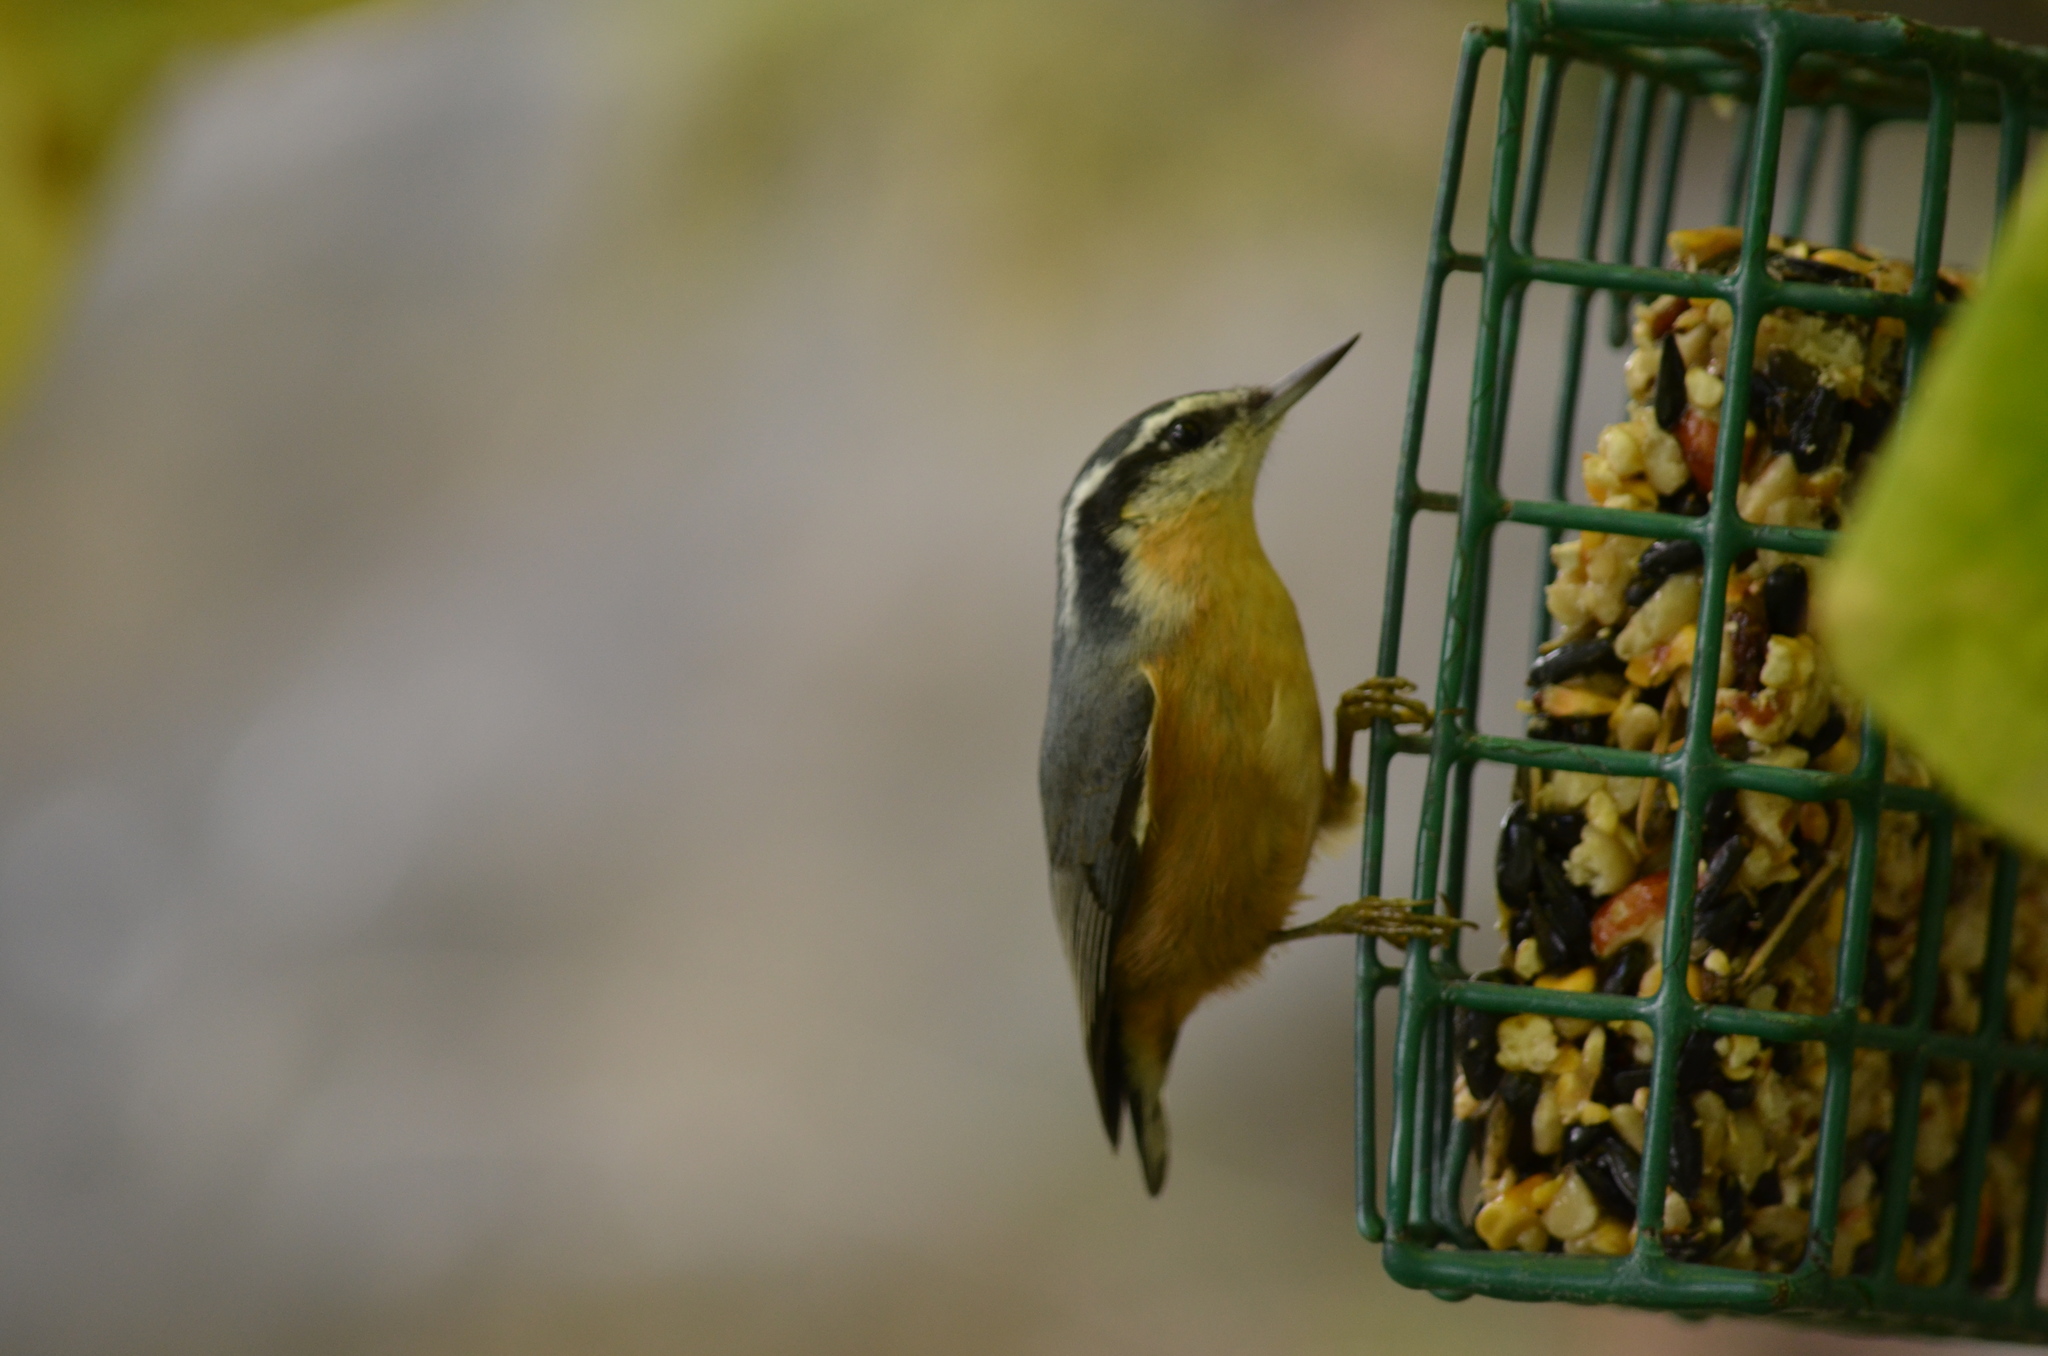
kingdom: Animalia
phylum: Chordata
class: Aves
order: Passeriformes
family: Sittidae
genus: Sitta
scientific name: Sitta canadensis
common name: Red-breasted nuthatch
